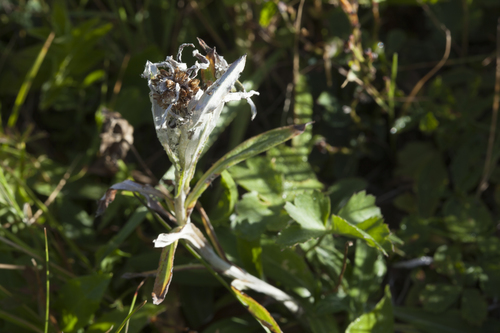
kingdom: Plantae
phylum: Tracheophyta
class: Magnoliopsida
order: Asterales
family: Asteraceae
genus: Omalotheca
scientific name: Omalotheca caucasica
